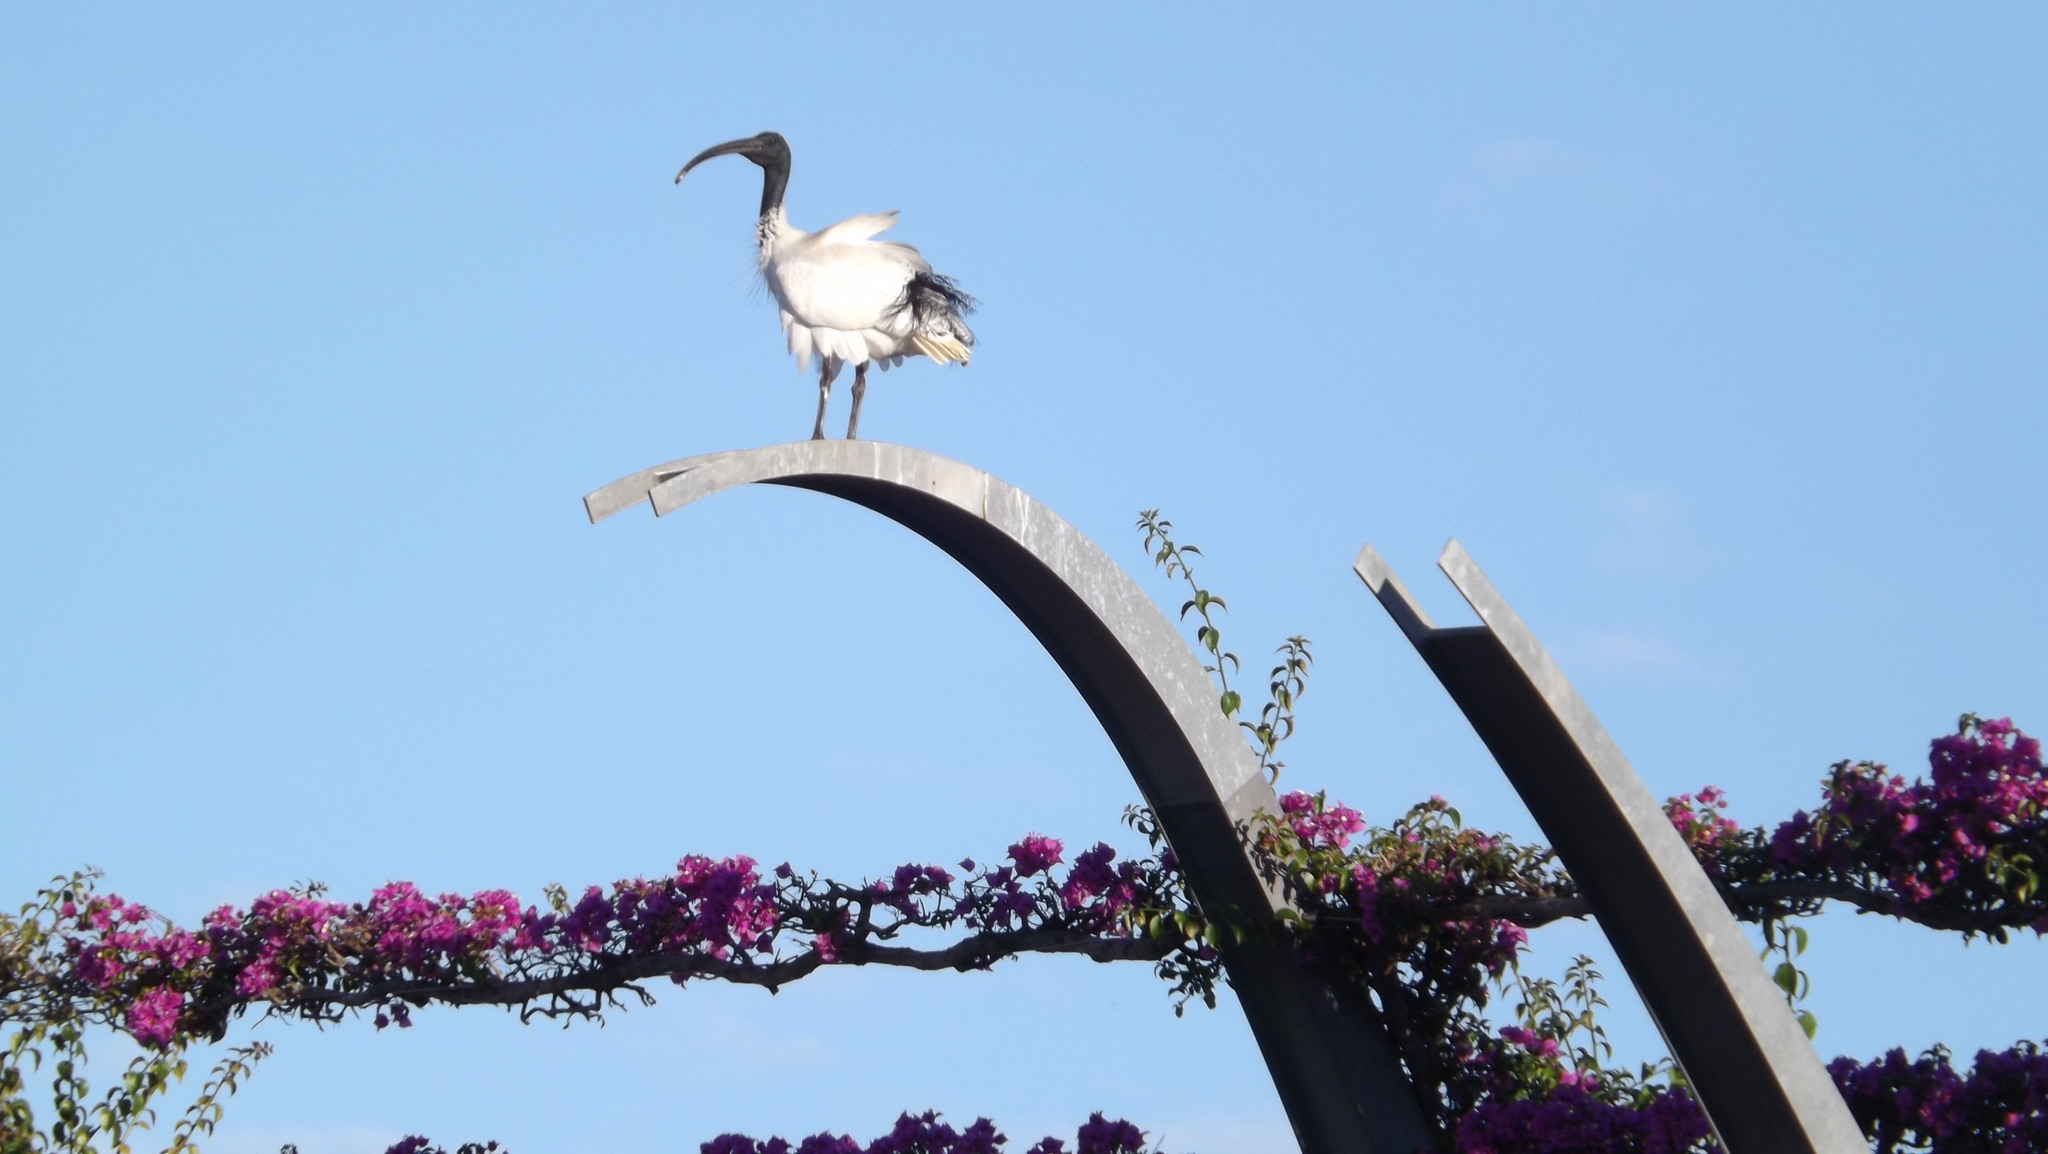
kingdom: Animalia
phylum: Chordata
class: Aves
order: Pelecaniformes
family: Threskiornithidae
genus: Threskiornis
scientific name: Threskiornis molucca
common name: Australian white ibis
